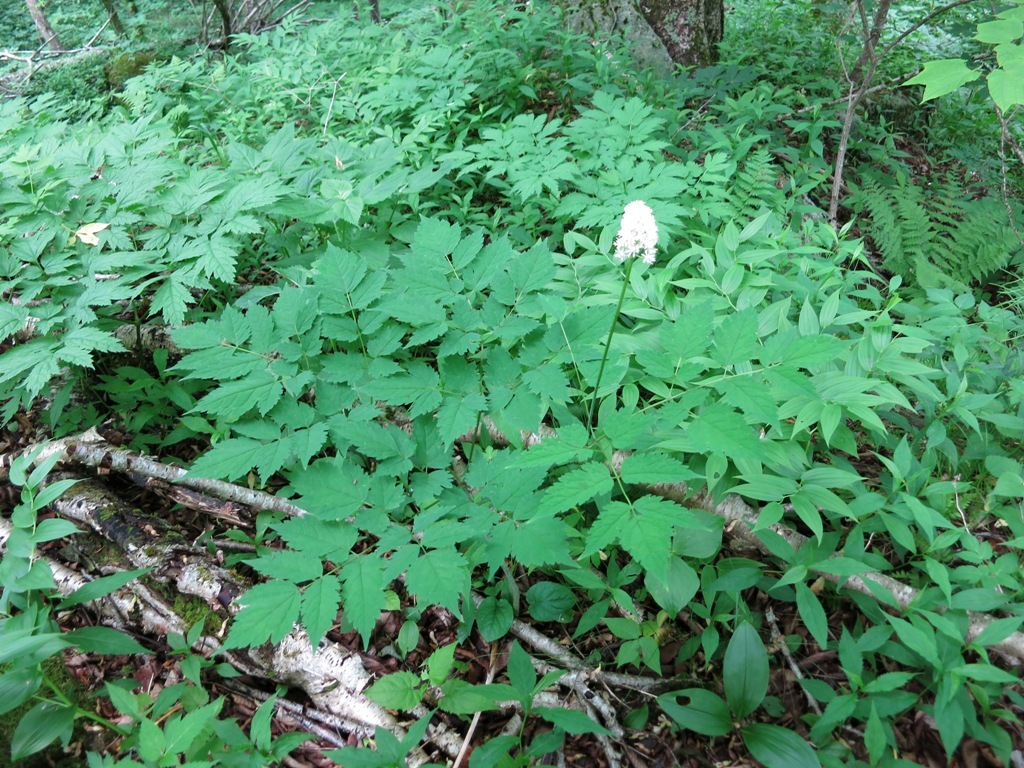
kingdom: Plantae
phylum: Tracheophyta
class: Magnoliopsida
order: Ranunculales
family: Ranunculaceae
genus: Actaea
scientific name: Actaea pachypoda
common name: Doll's-eyes
